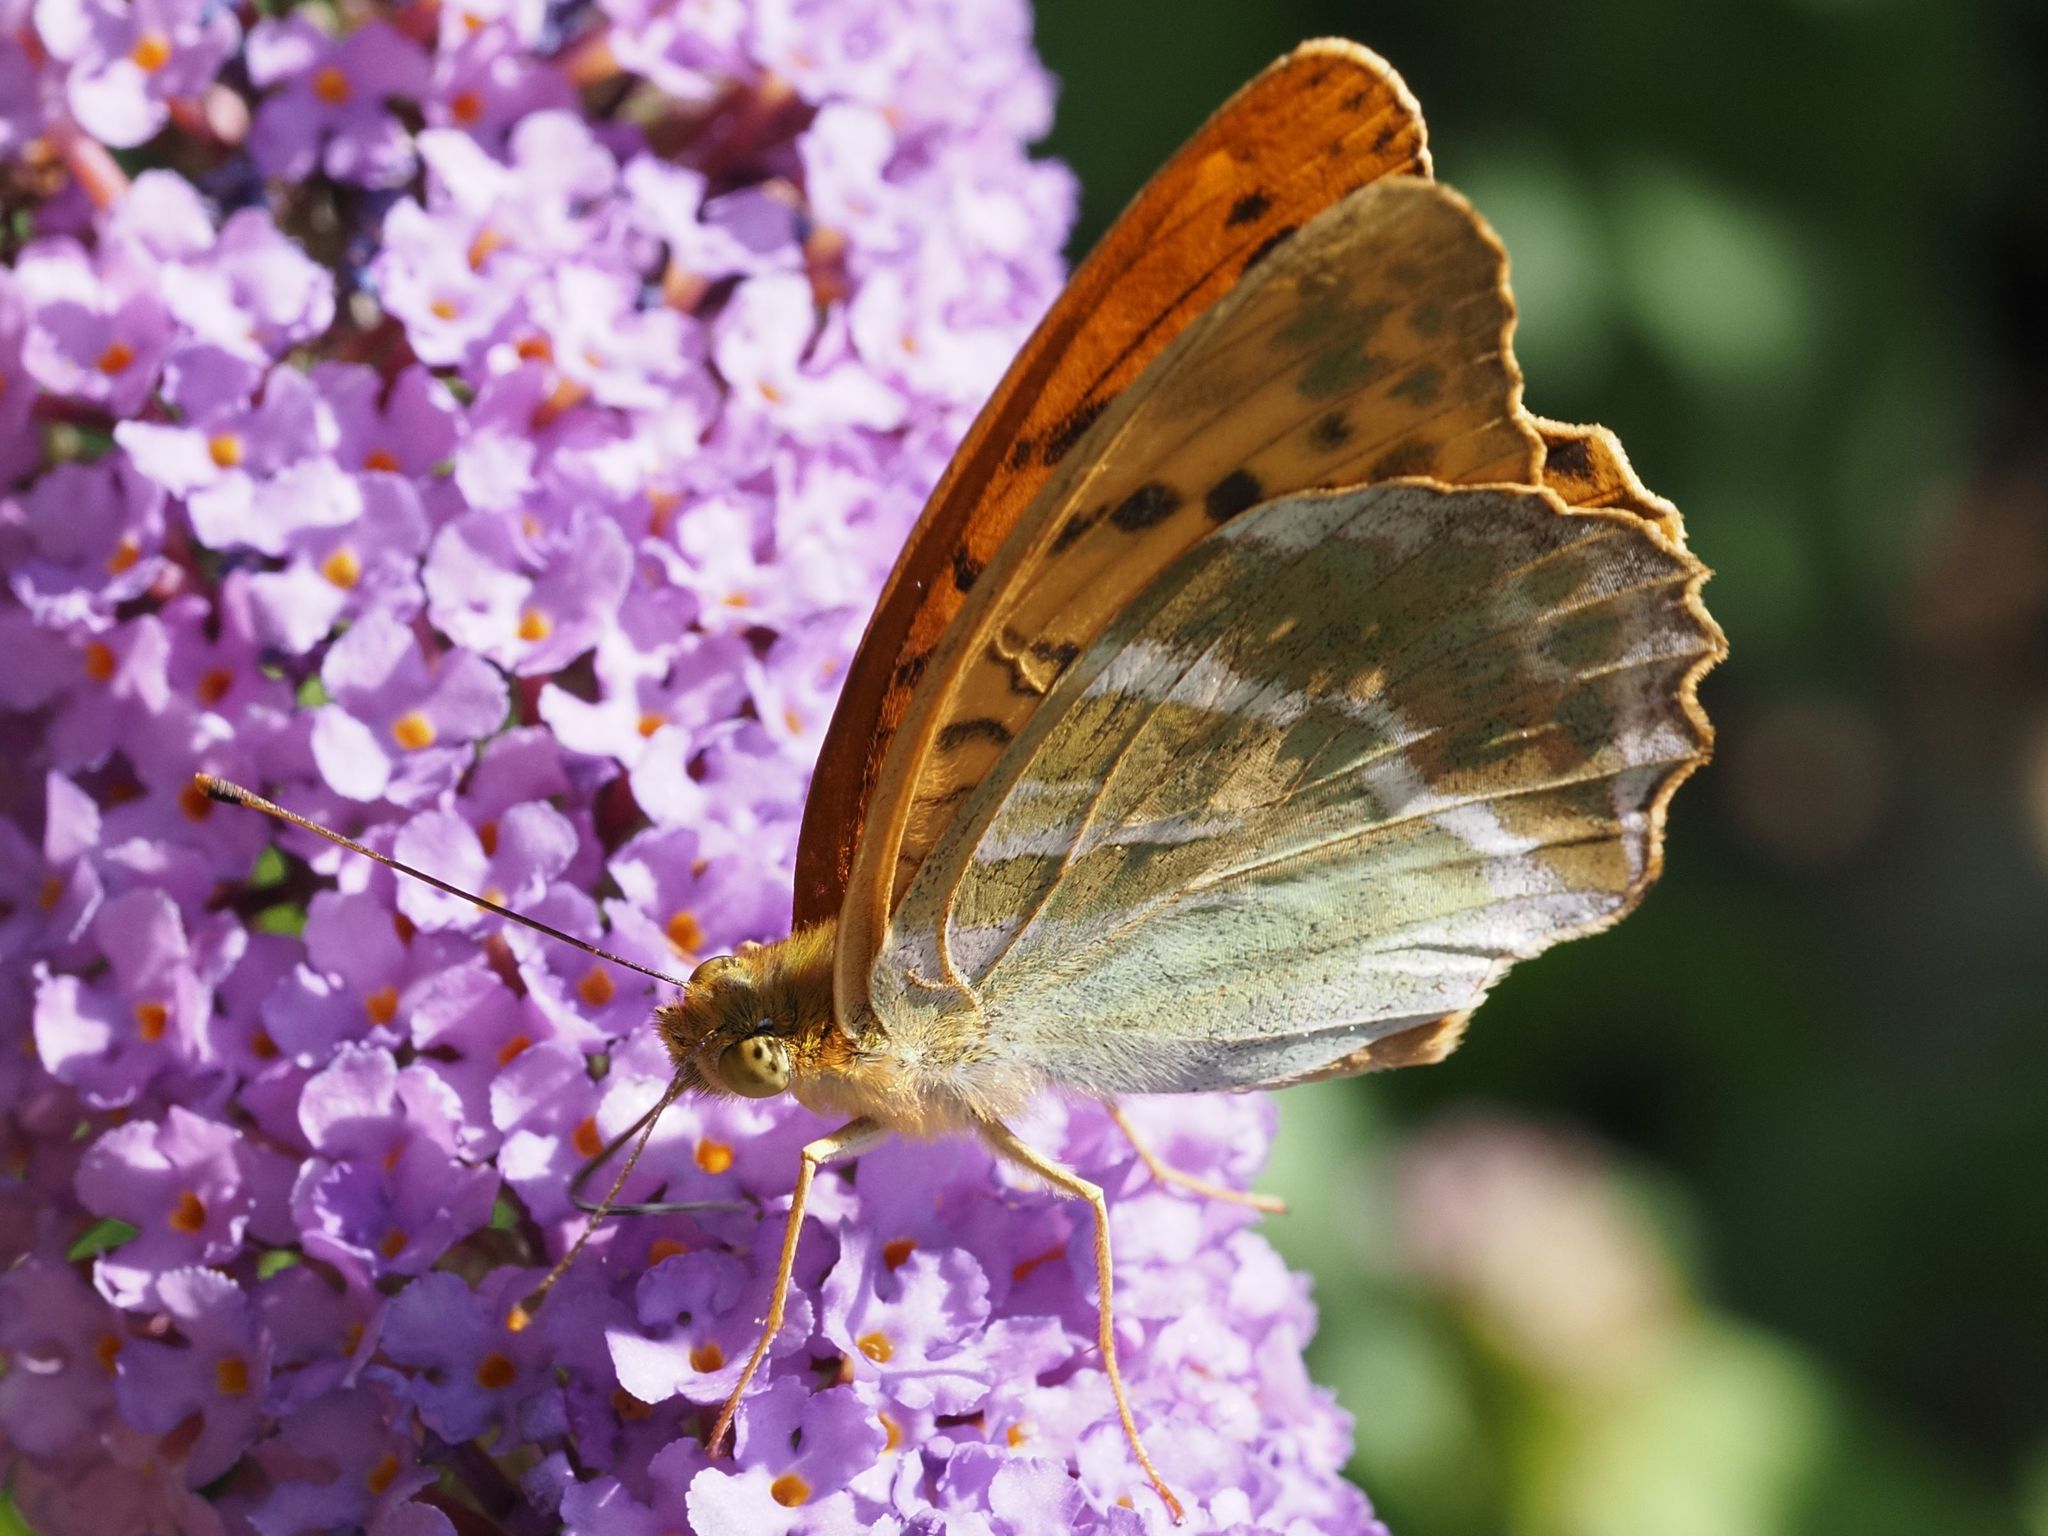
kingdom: Animalia
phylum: Arthropoda
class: Insecta
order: Lepidoptera
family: Nymphalidae
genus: Argynnis
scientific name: Argynnis paphia
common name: Silver-washed fritillary
